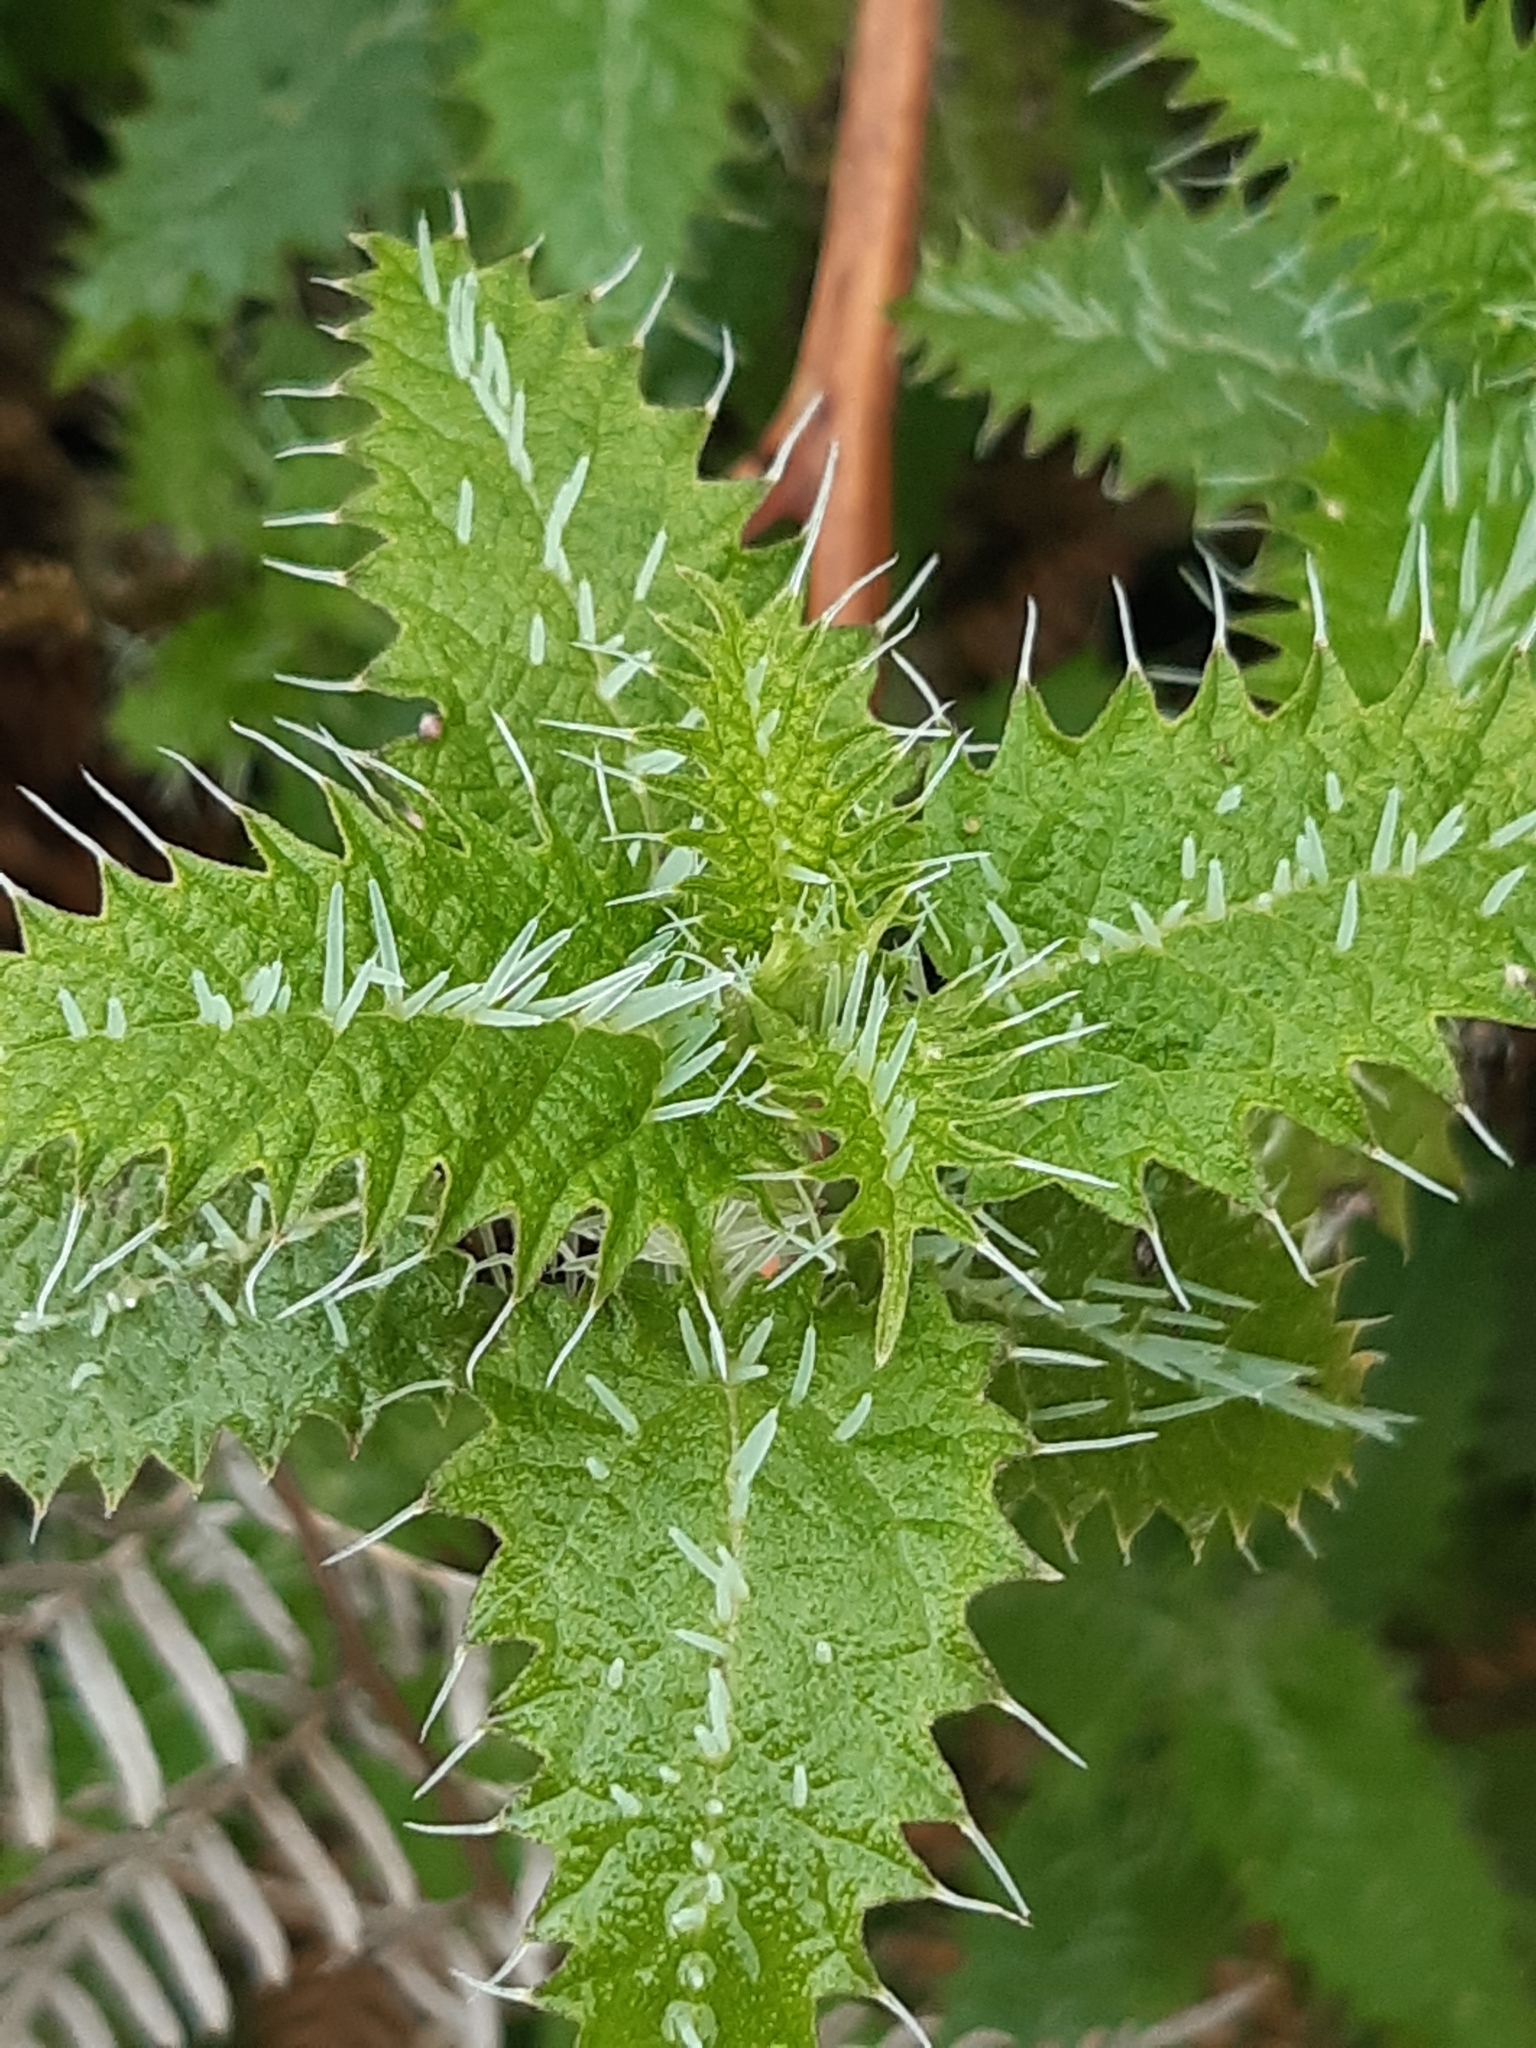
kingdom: Plantae
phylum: Tracheophyta
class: Magnoliopsida
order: Rosales
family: Urticaceae
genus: Urtica
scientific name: Urtica ferox
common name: Tree nettle
